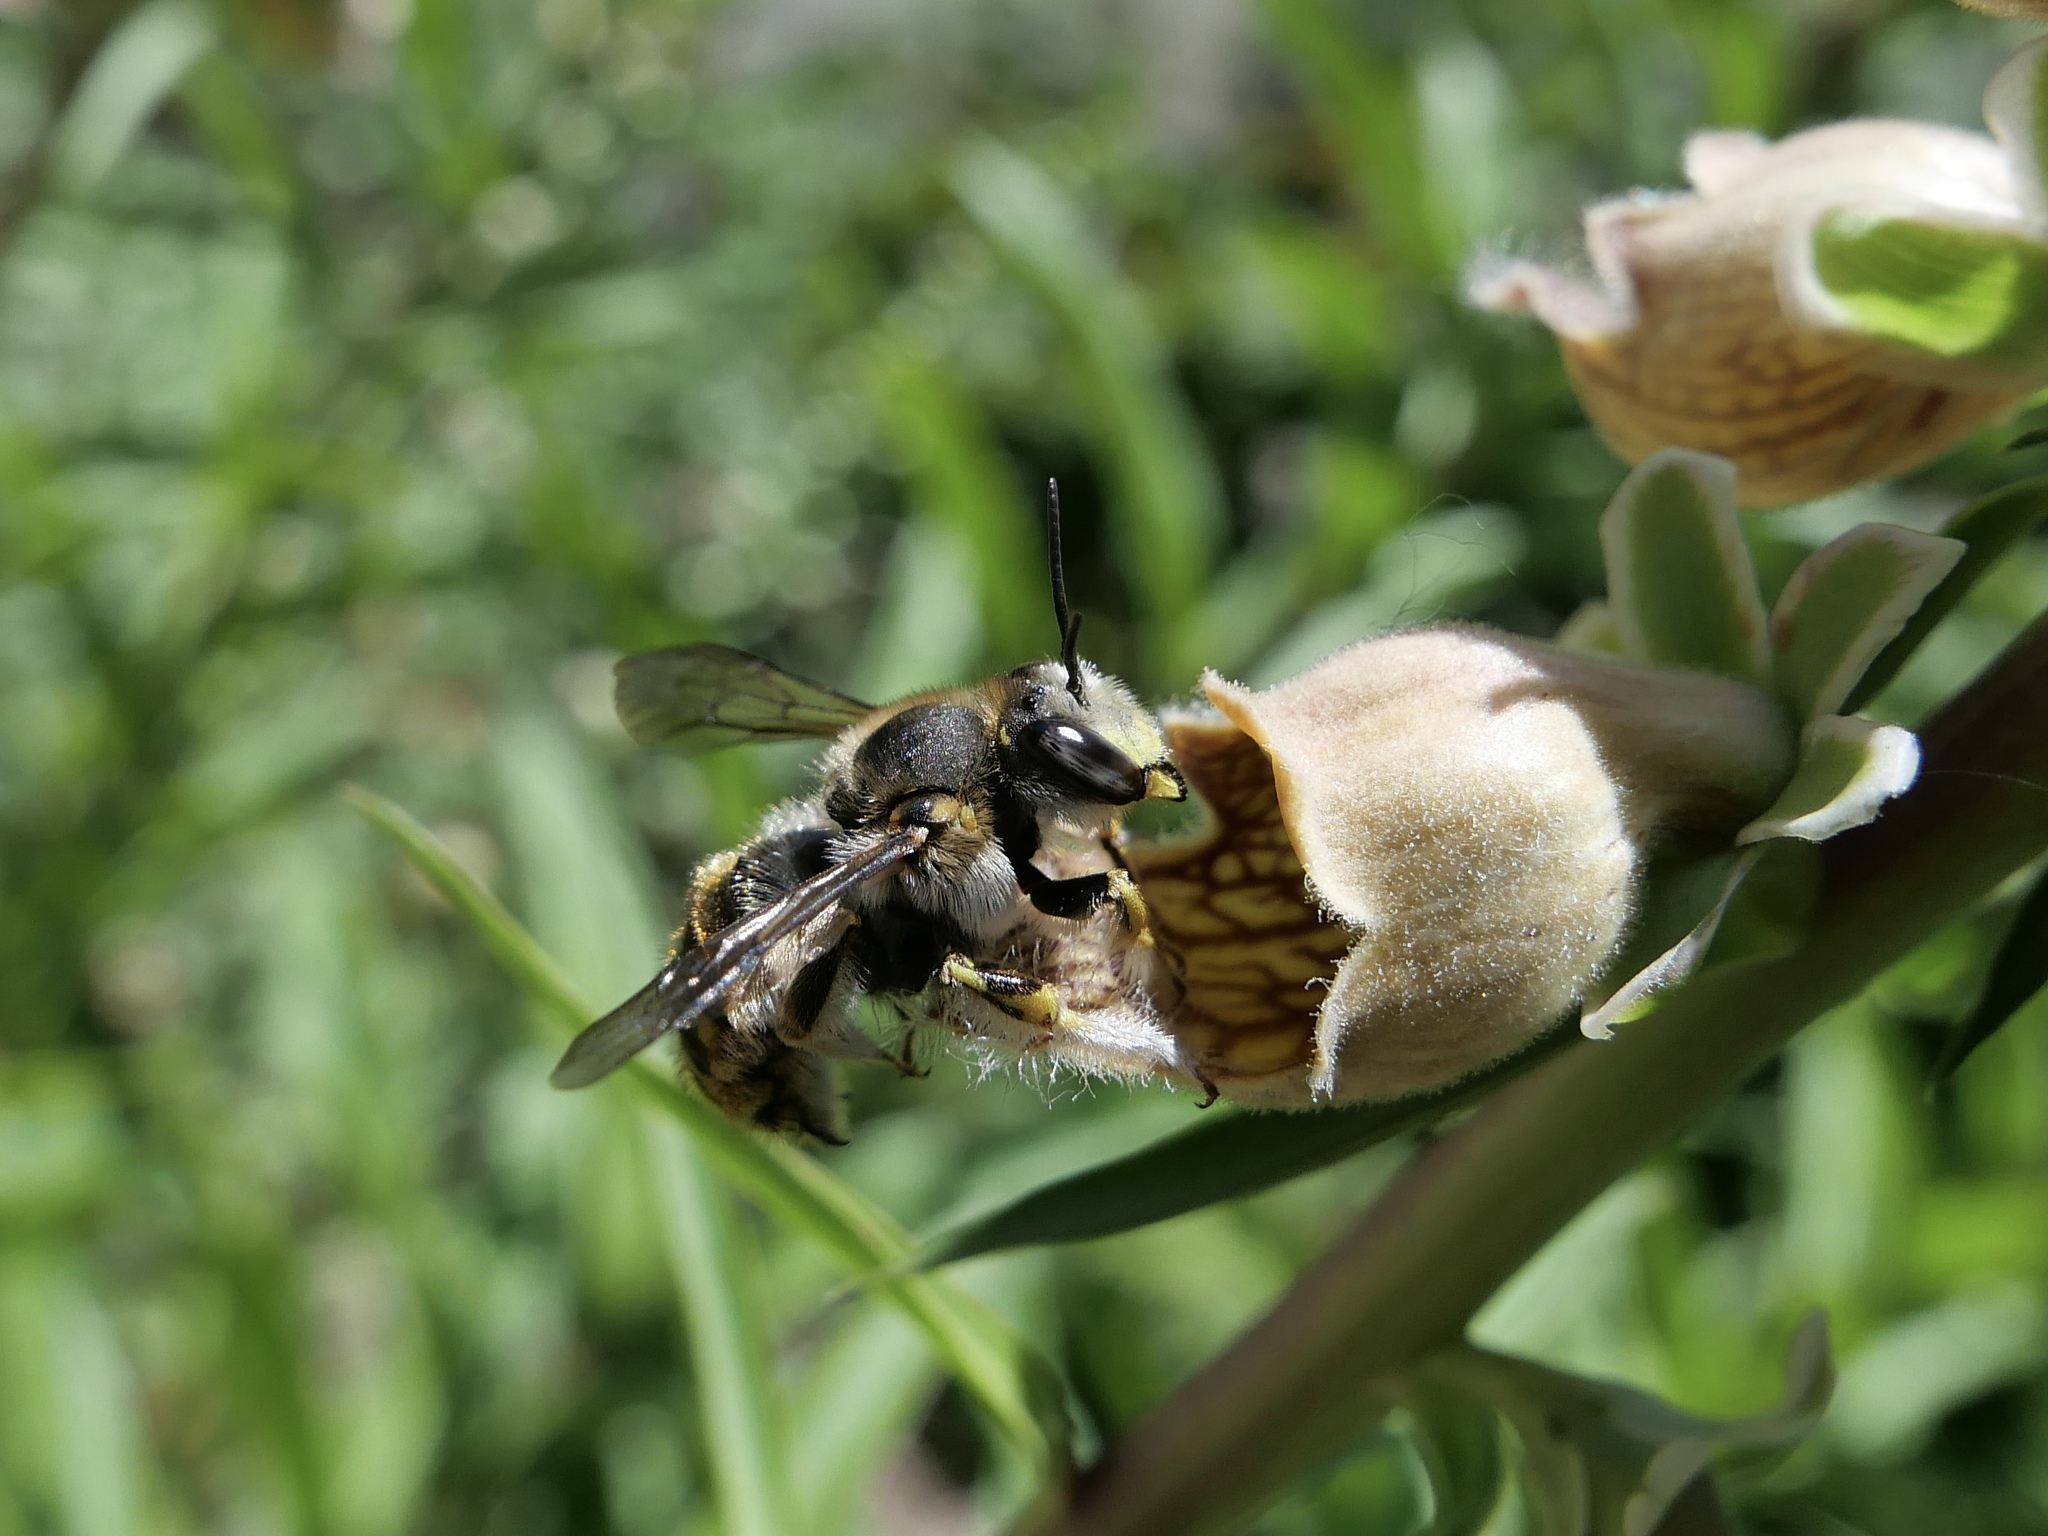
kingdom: Animalia
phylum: Arthropoda
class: Insecta
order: Hymenoptera
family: Megachilidae
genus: Anthidium
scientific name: Anthidium manicatum
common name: Wool carder bee
